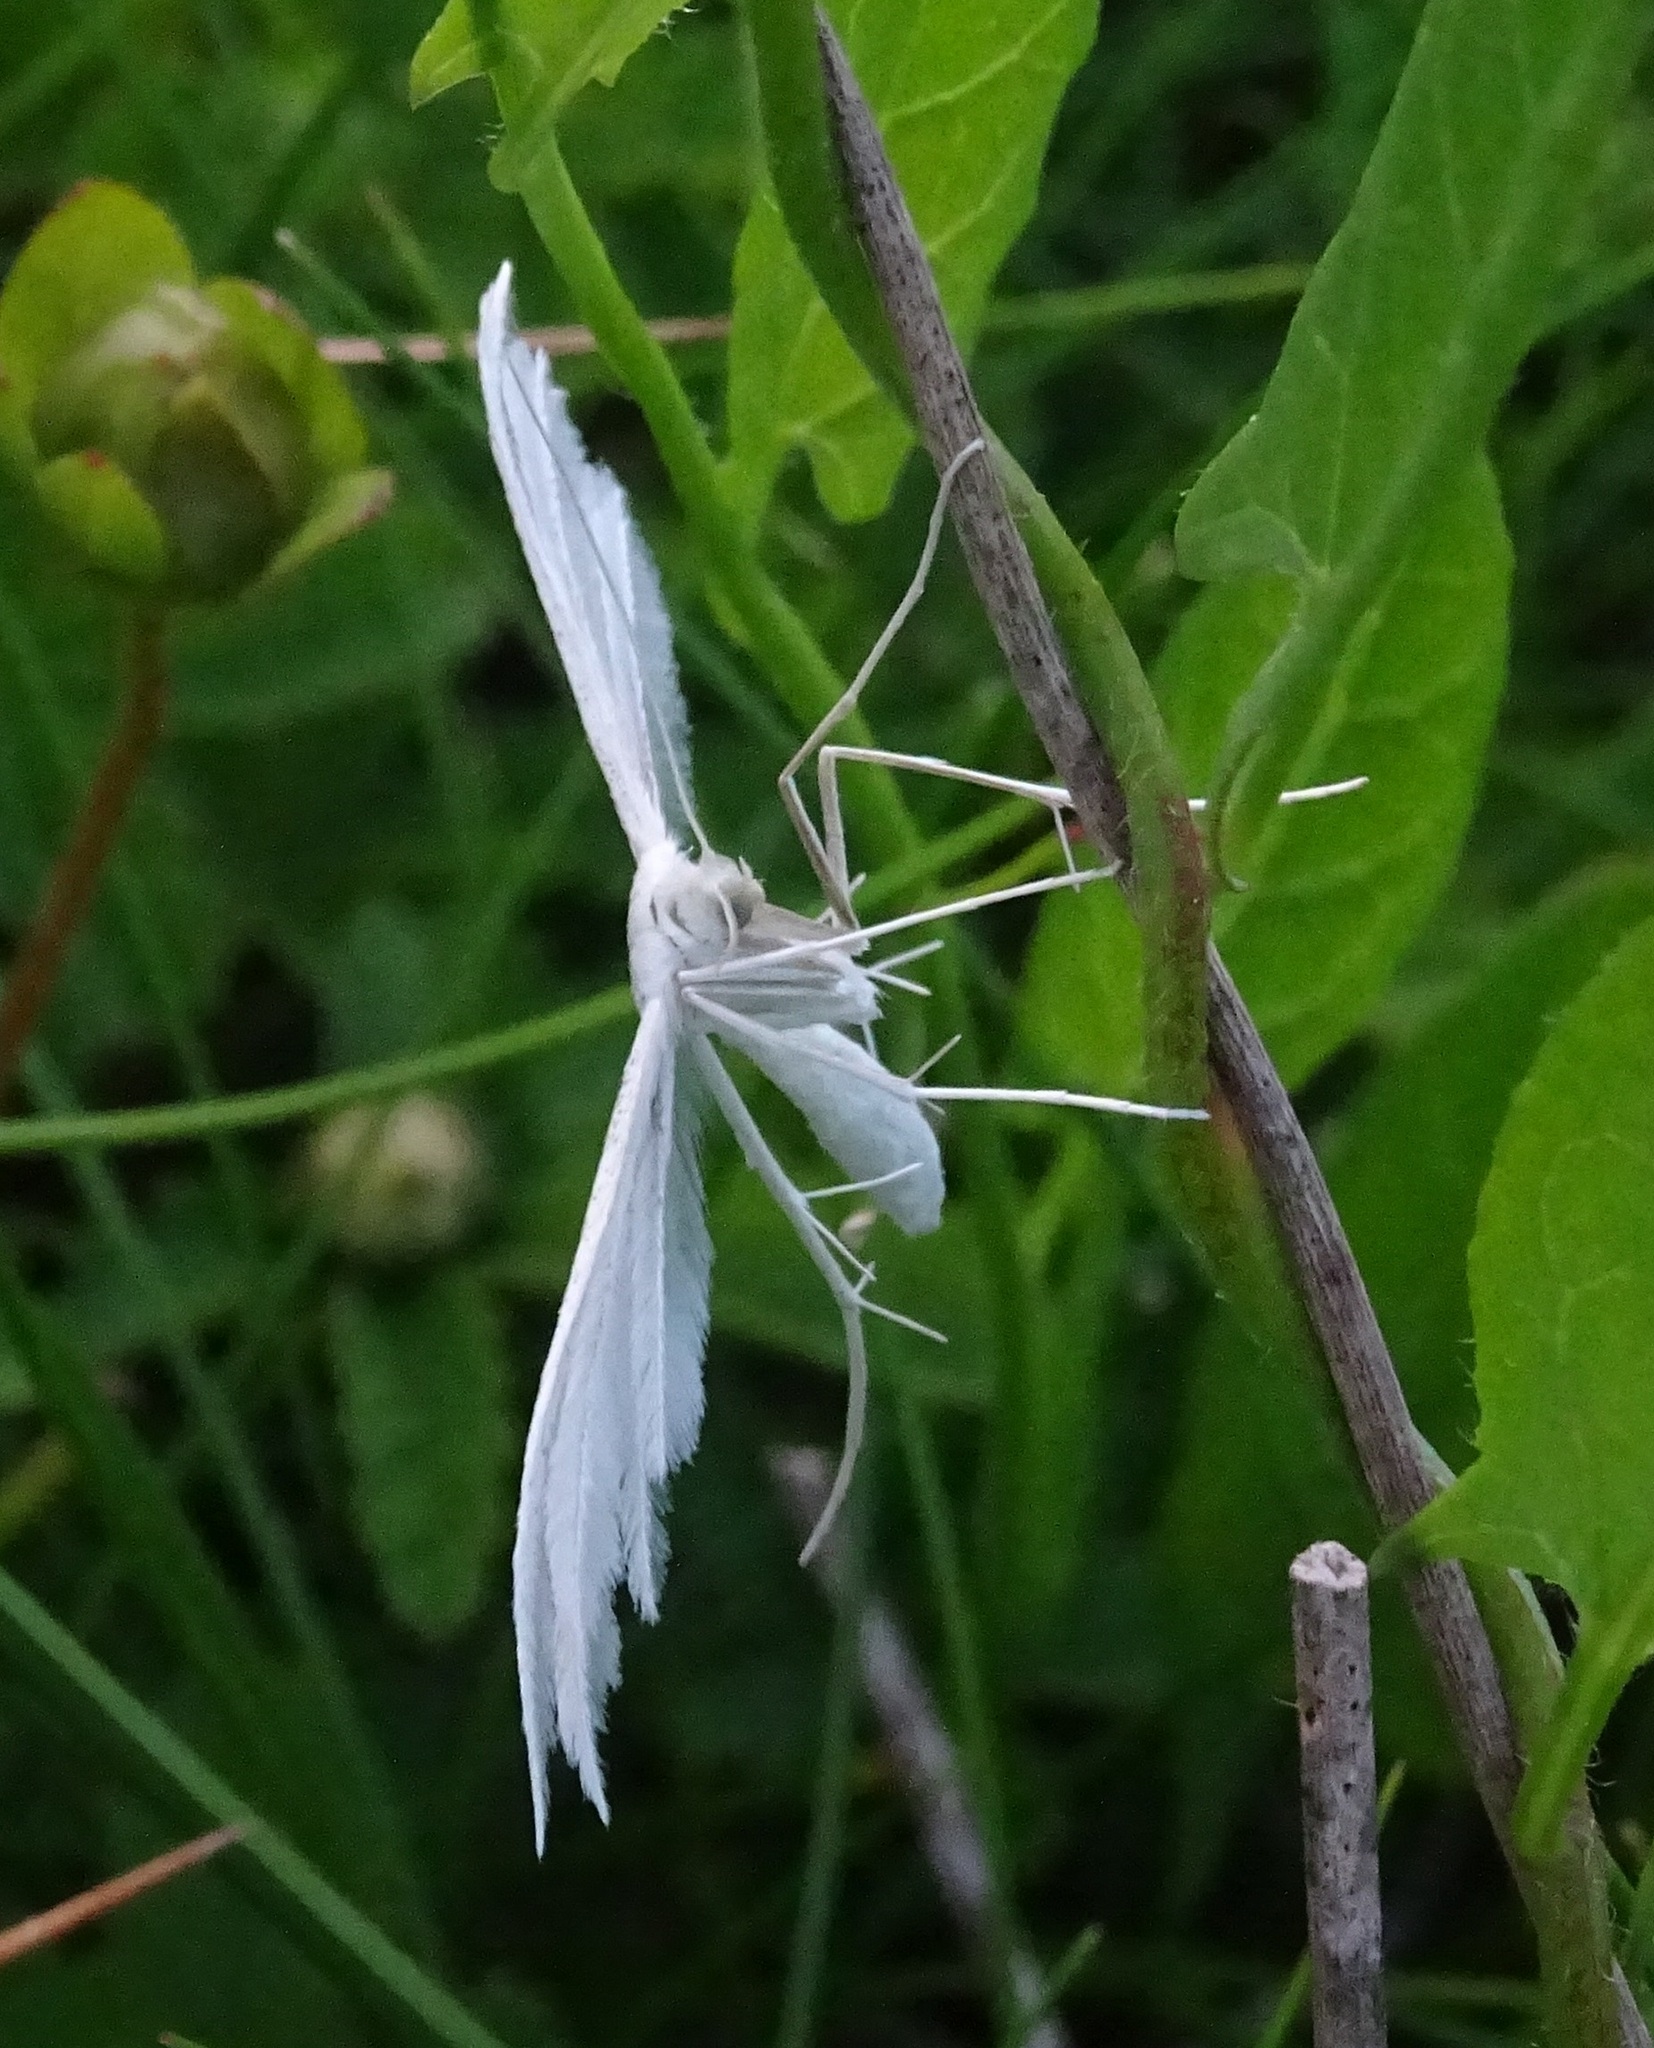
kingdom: Animalia
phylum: Arthropoda
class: Insecta
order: Lepidoptera
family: Pterophoridae
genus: Pterophorus
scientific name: Pterophorus pentadactyla
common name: White plume moth
